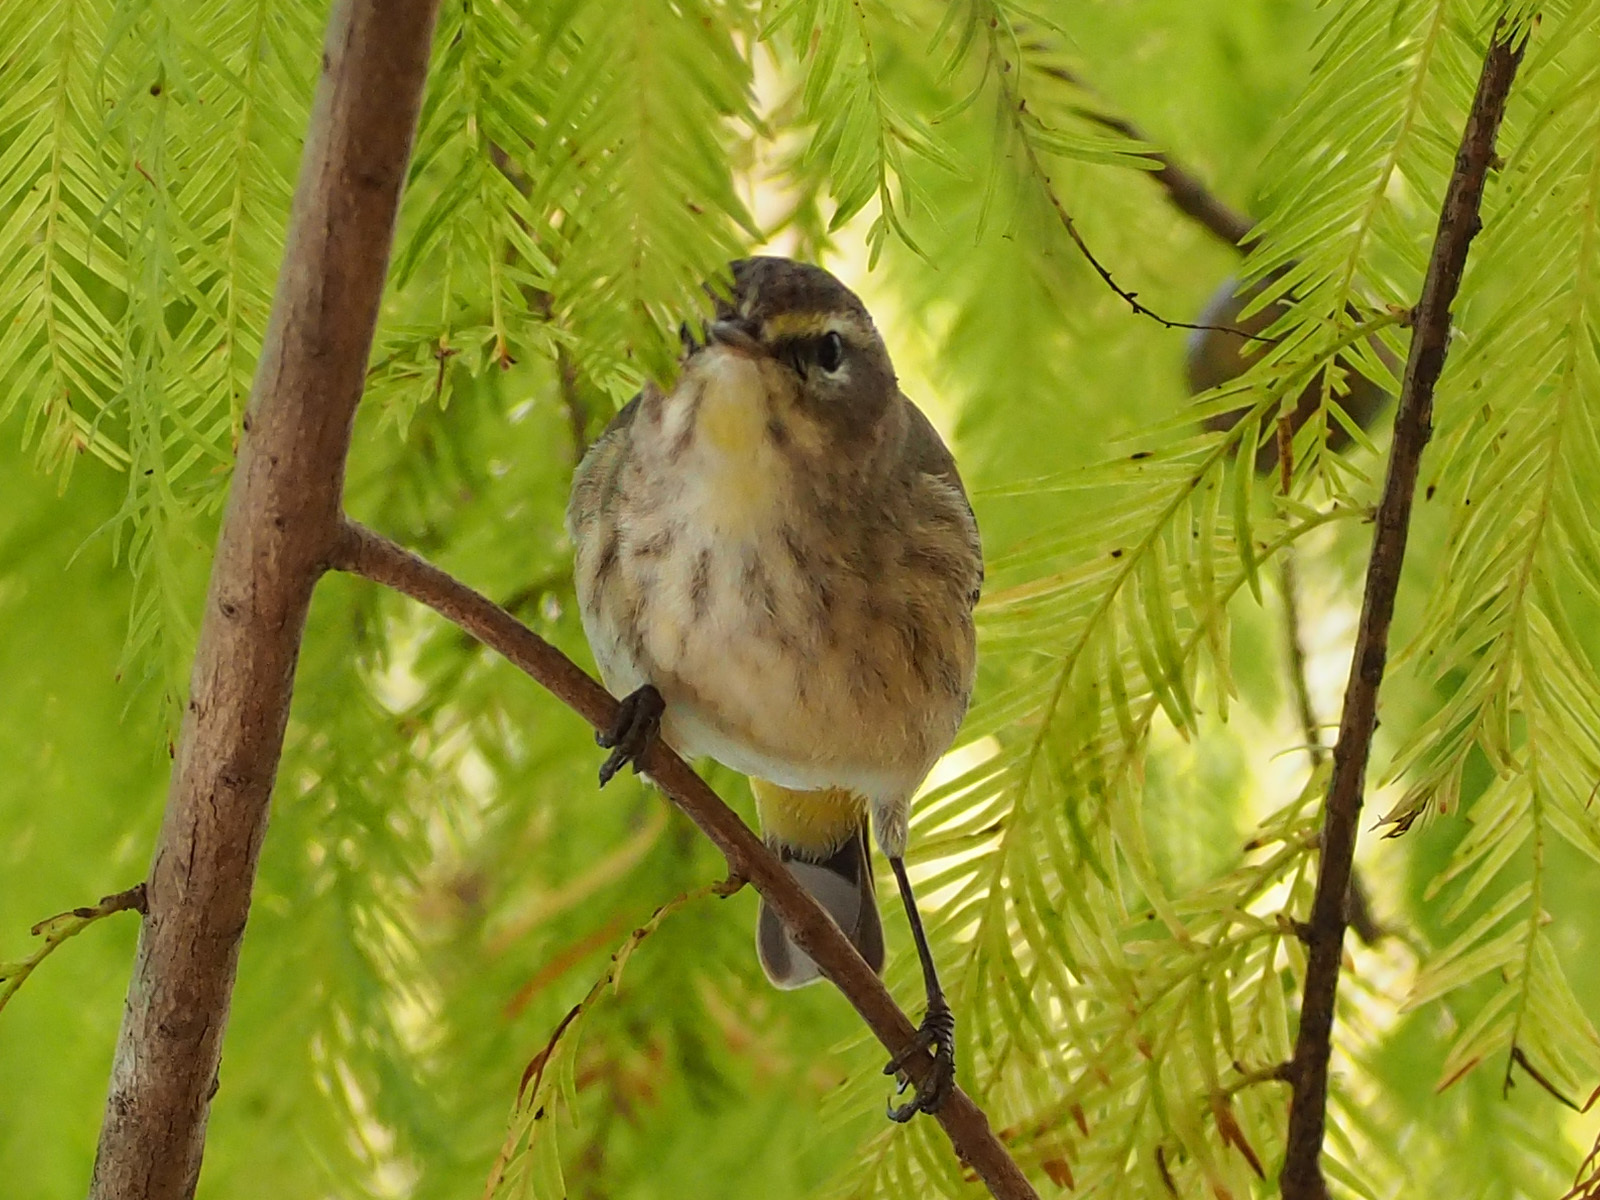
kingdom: Animalia
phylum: Chordata
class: Aves
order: Passeriformes
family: Parulidae
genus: Setophaga
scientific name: Setophaga palmarum
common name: Palm warbler
